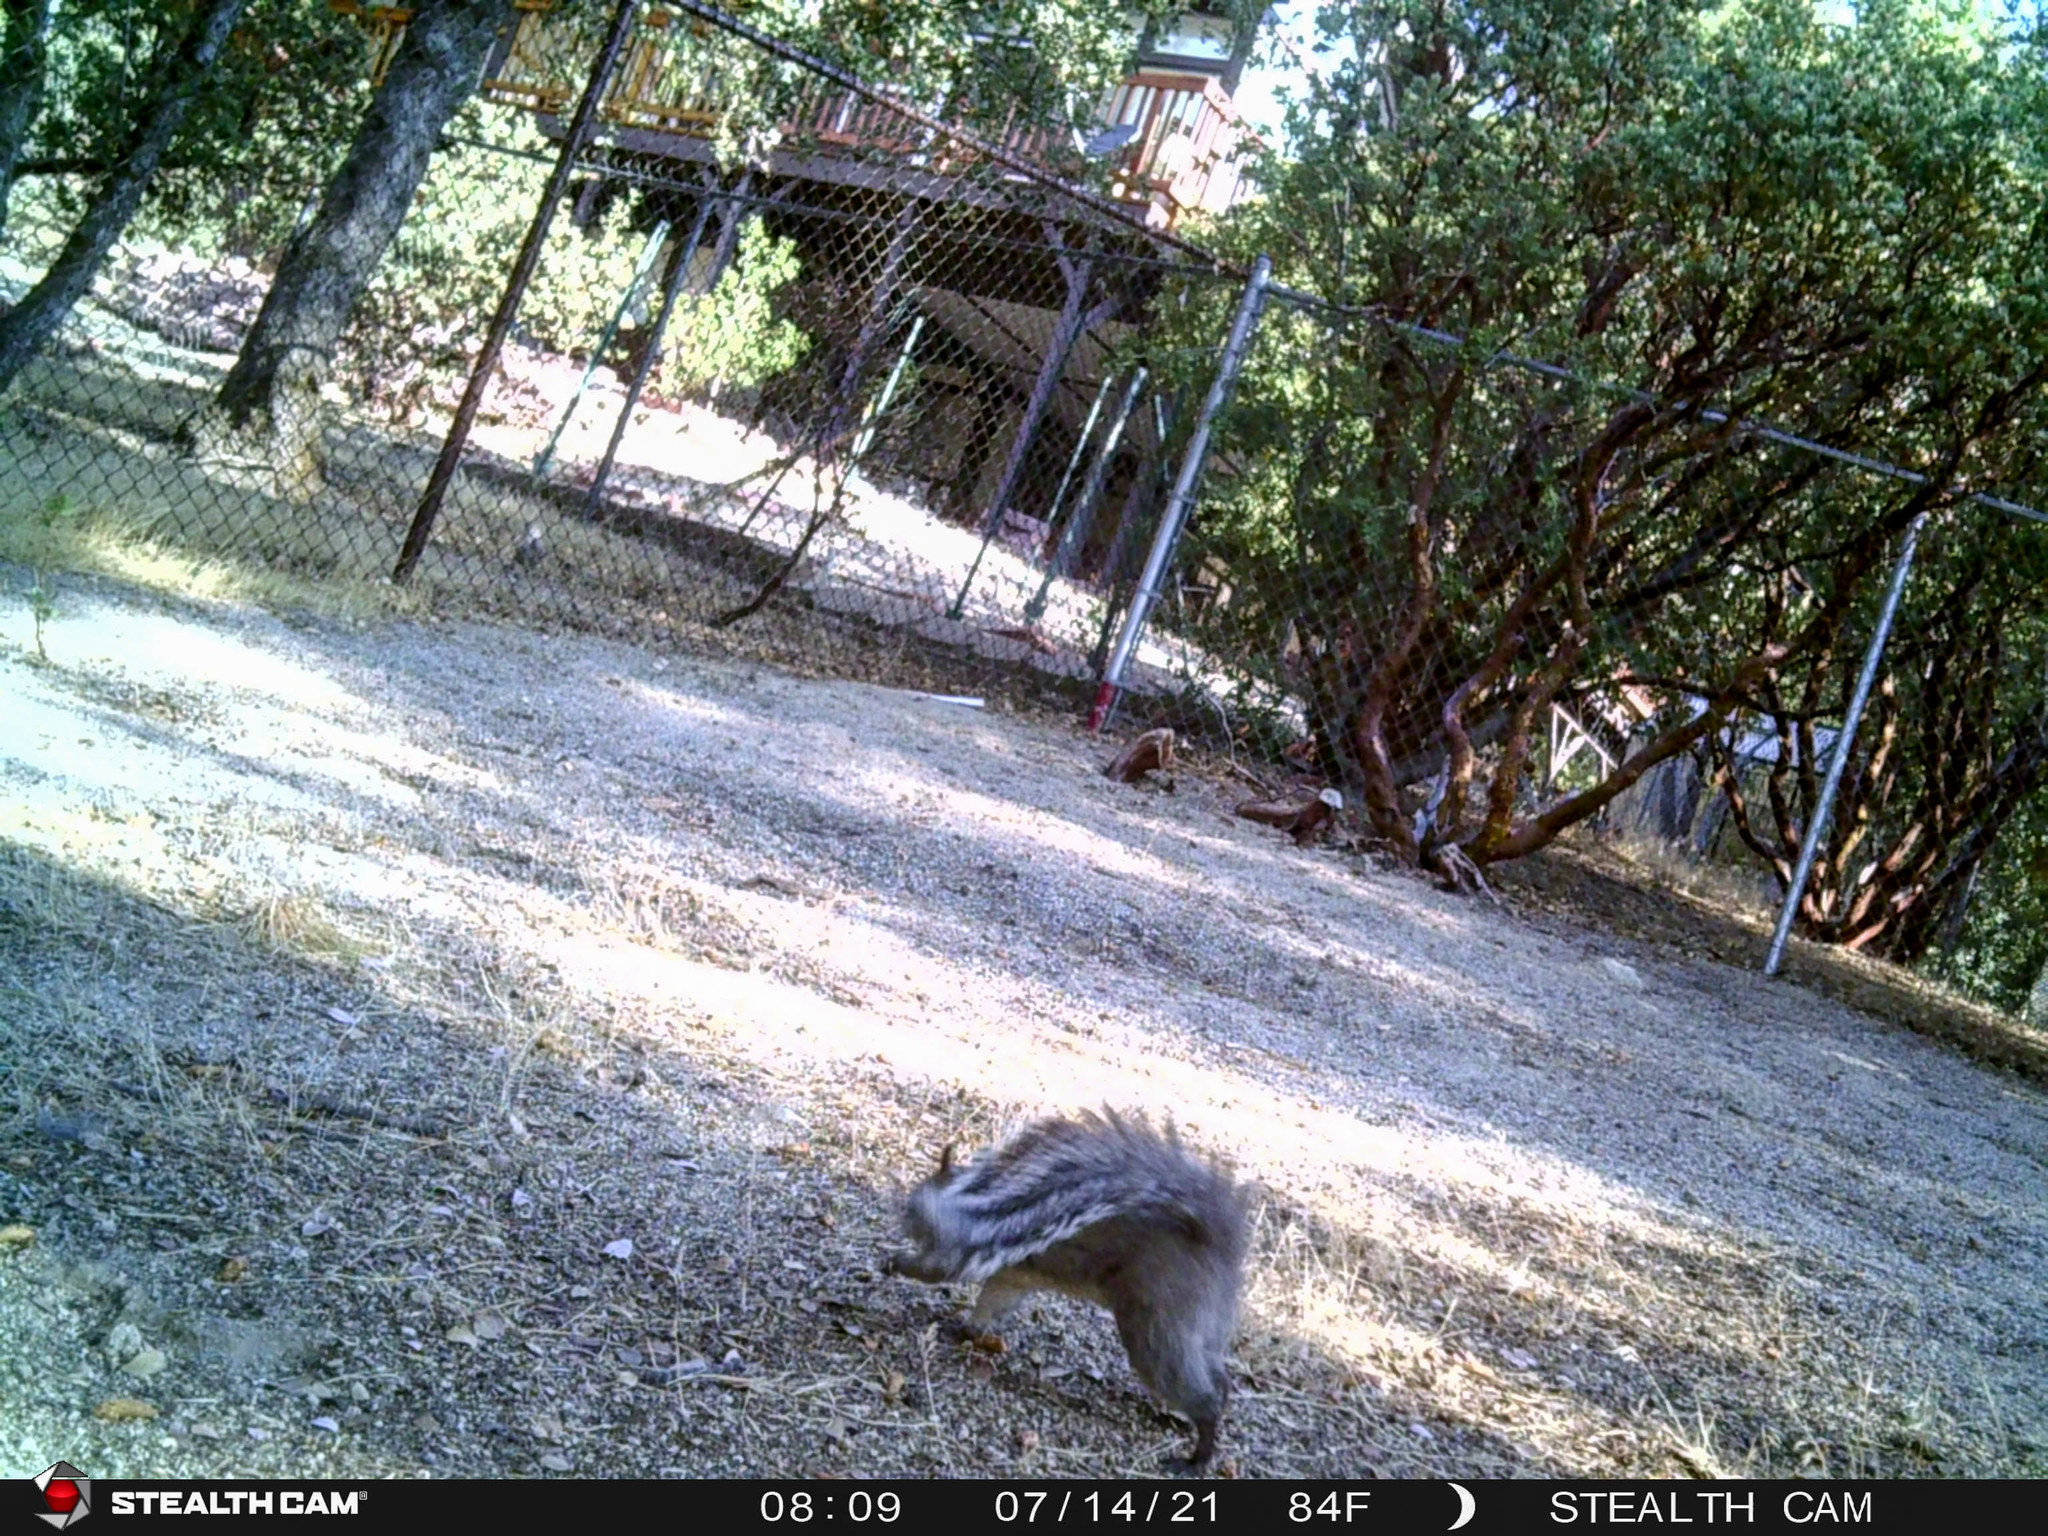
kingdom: Animalia
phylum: Chordata
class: Mammalia
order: Rodentia
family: Sciuridae
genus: Sciurus
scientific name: Sciurus griseus
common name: Western gray squirrel
